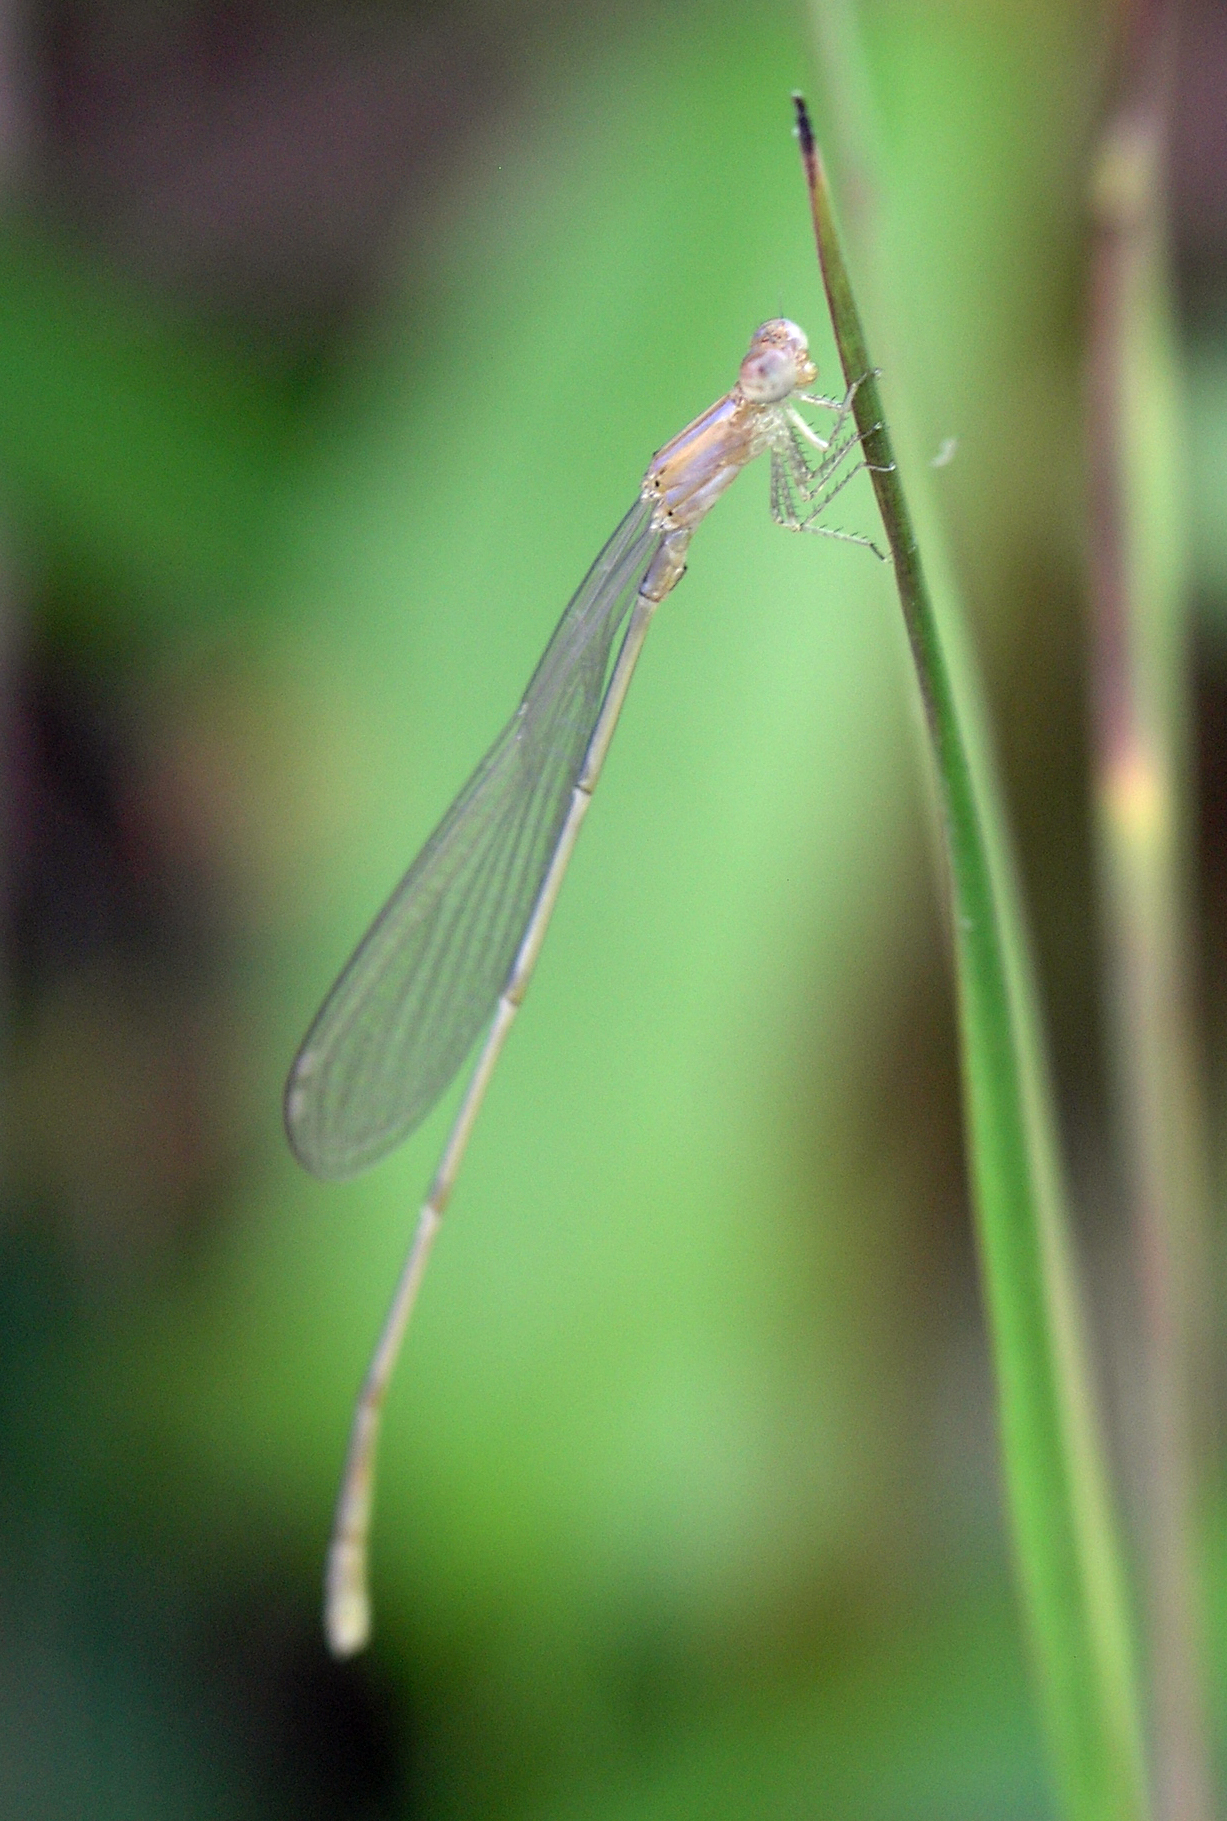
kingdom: Animalia
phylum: Arthropoda
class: Insecta
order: Odonata
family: Coenagrionidae
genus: Aciagrion
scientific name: Aciagrion hisopa
